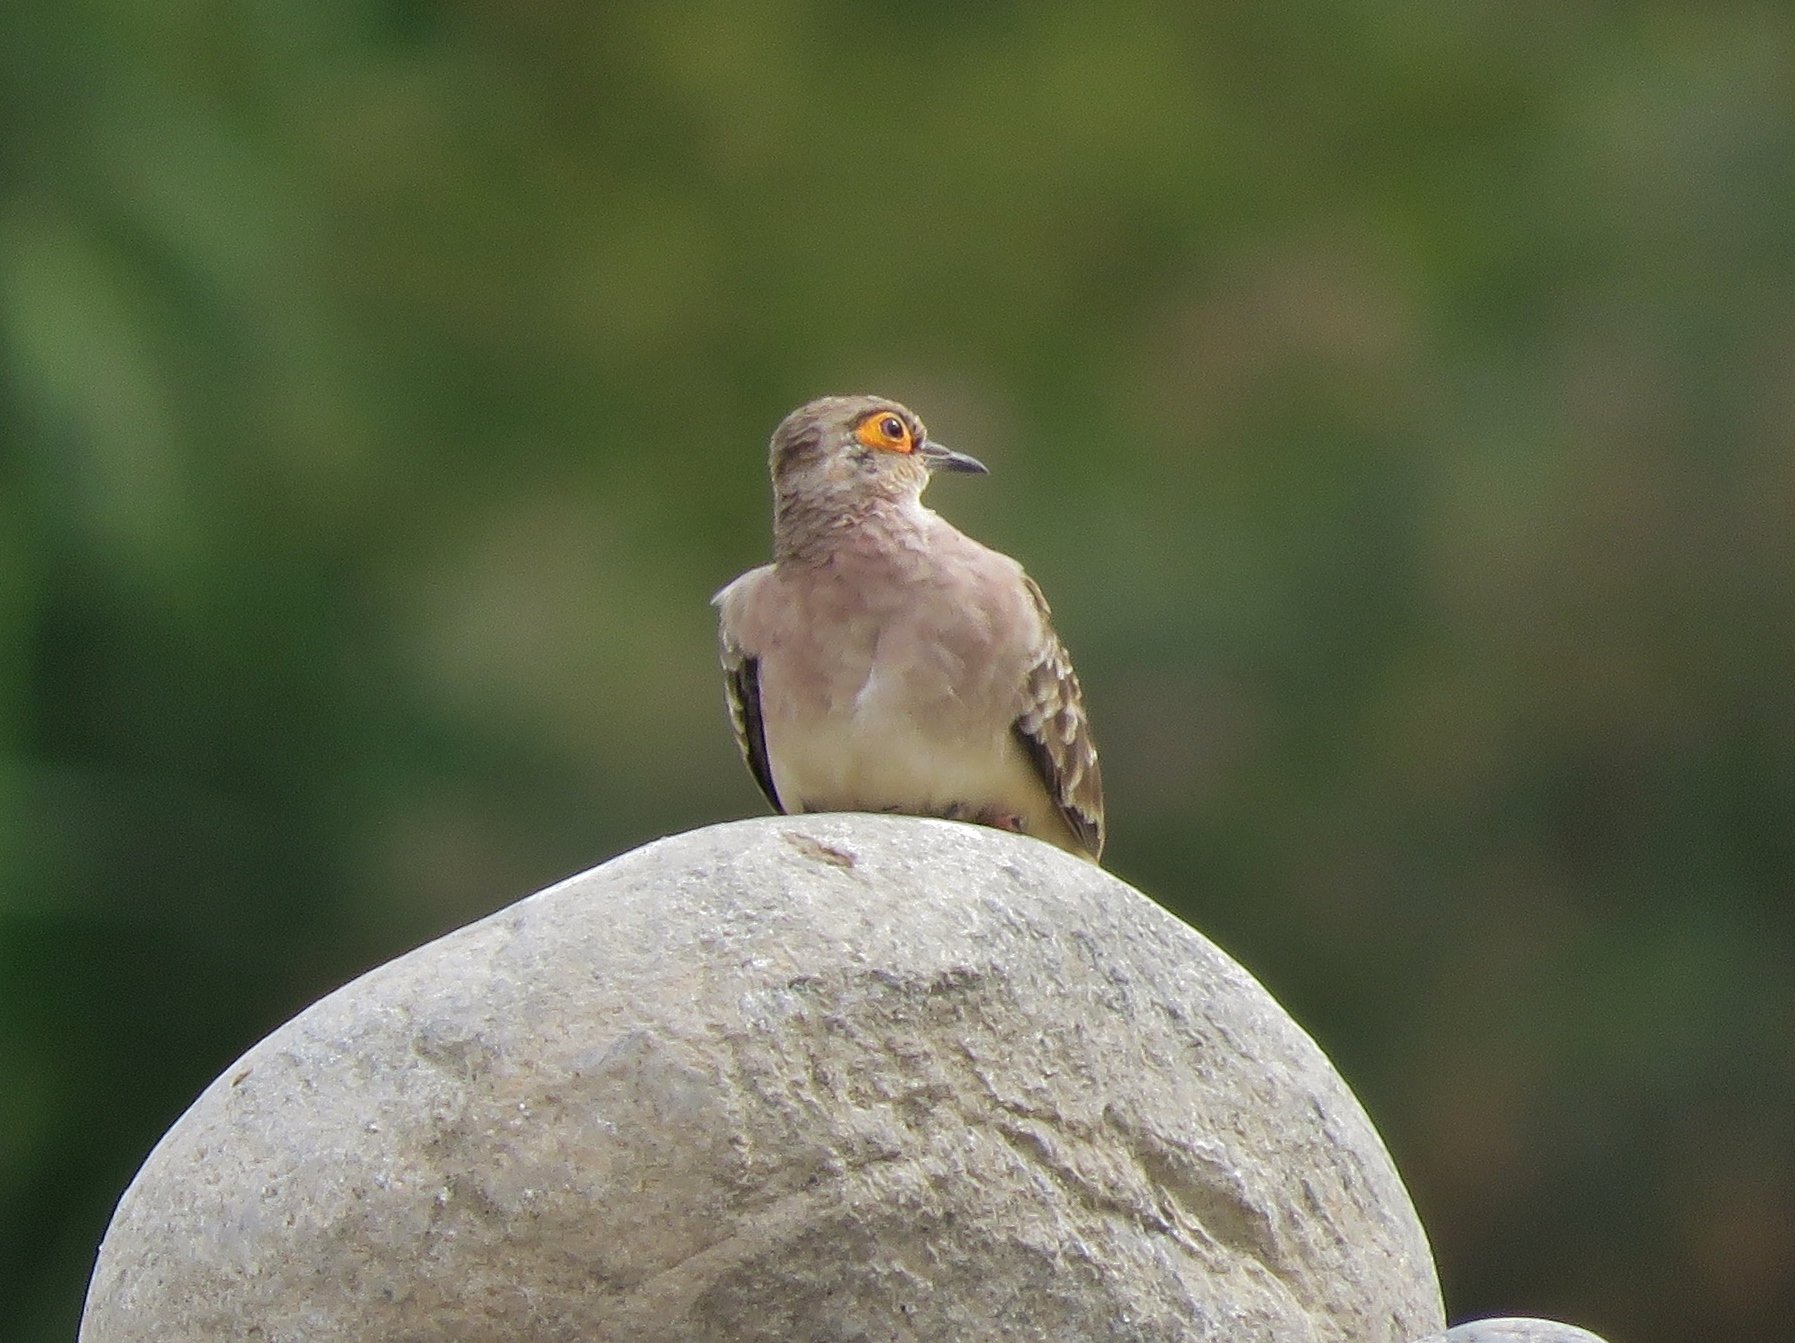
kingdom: Animalia
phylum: Chordata
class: Aves
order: Columbiformes
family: Columbidae
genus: Metriopelia
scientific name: Metriopelia ceciliae
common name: Bare-faced ground dove
